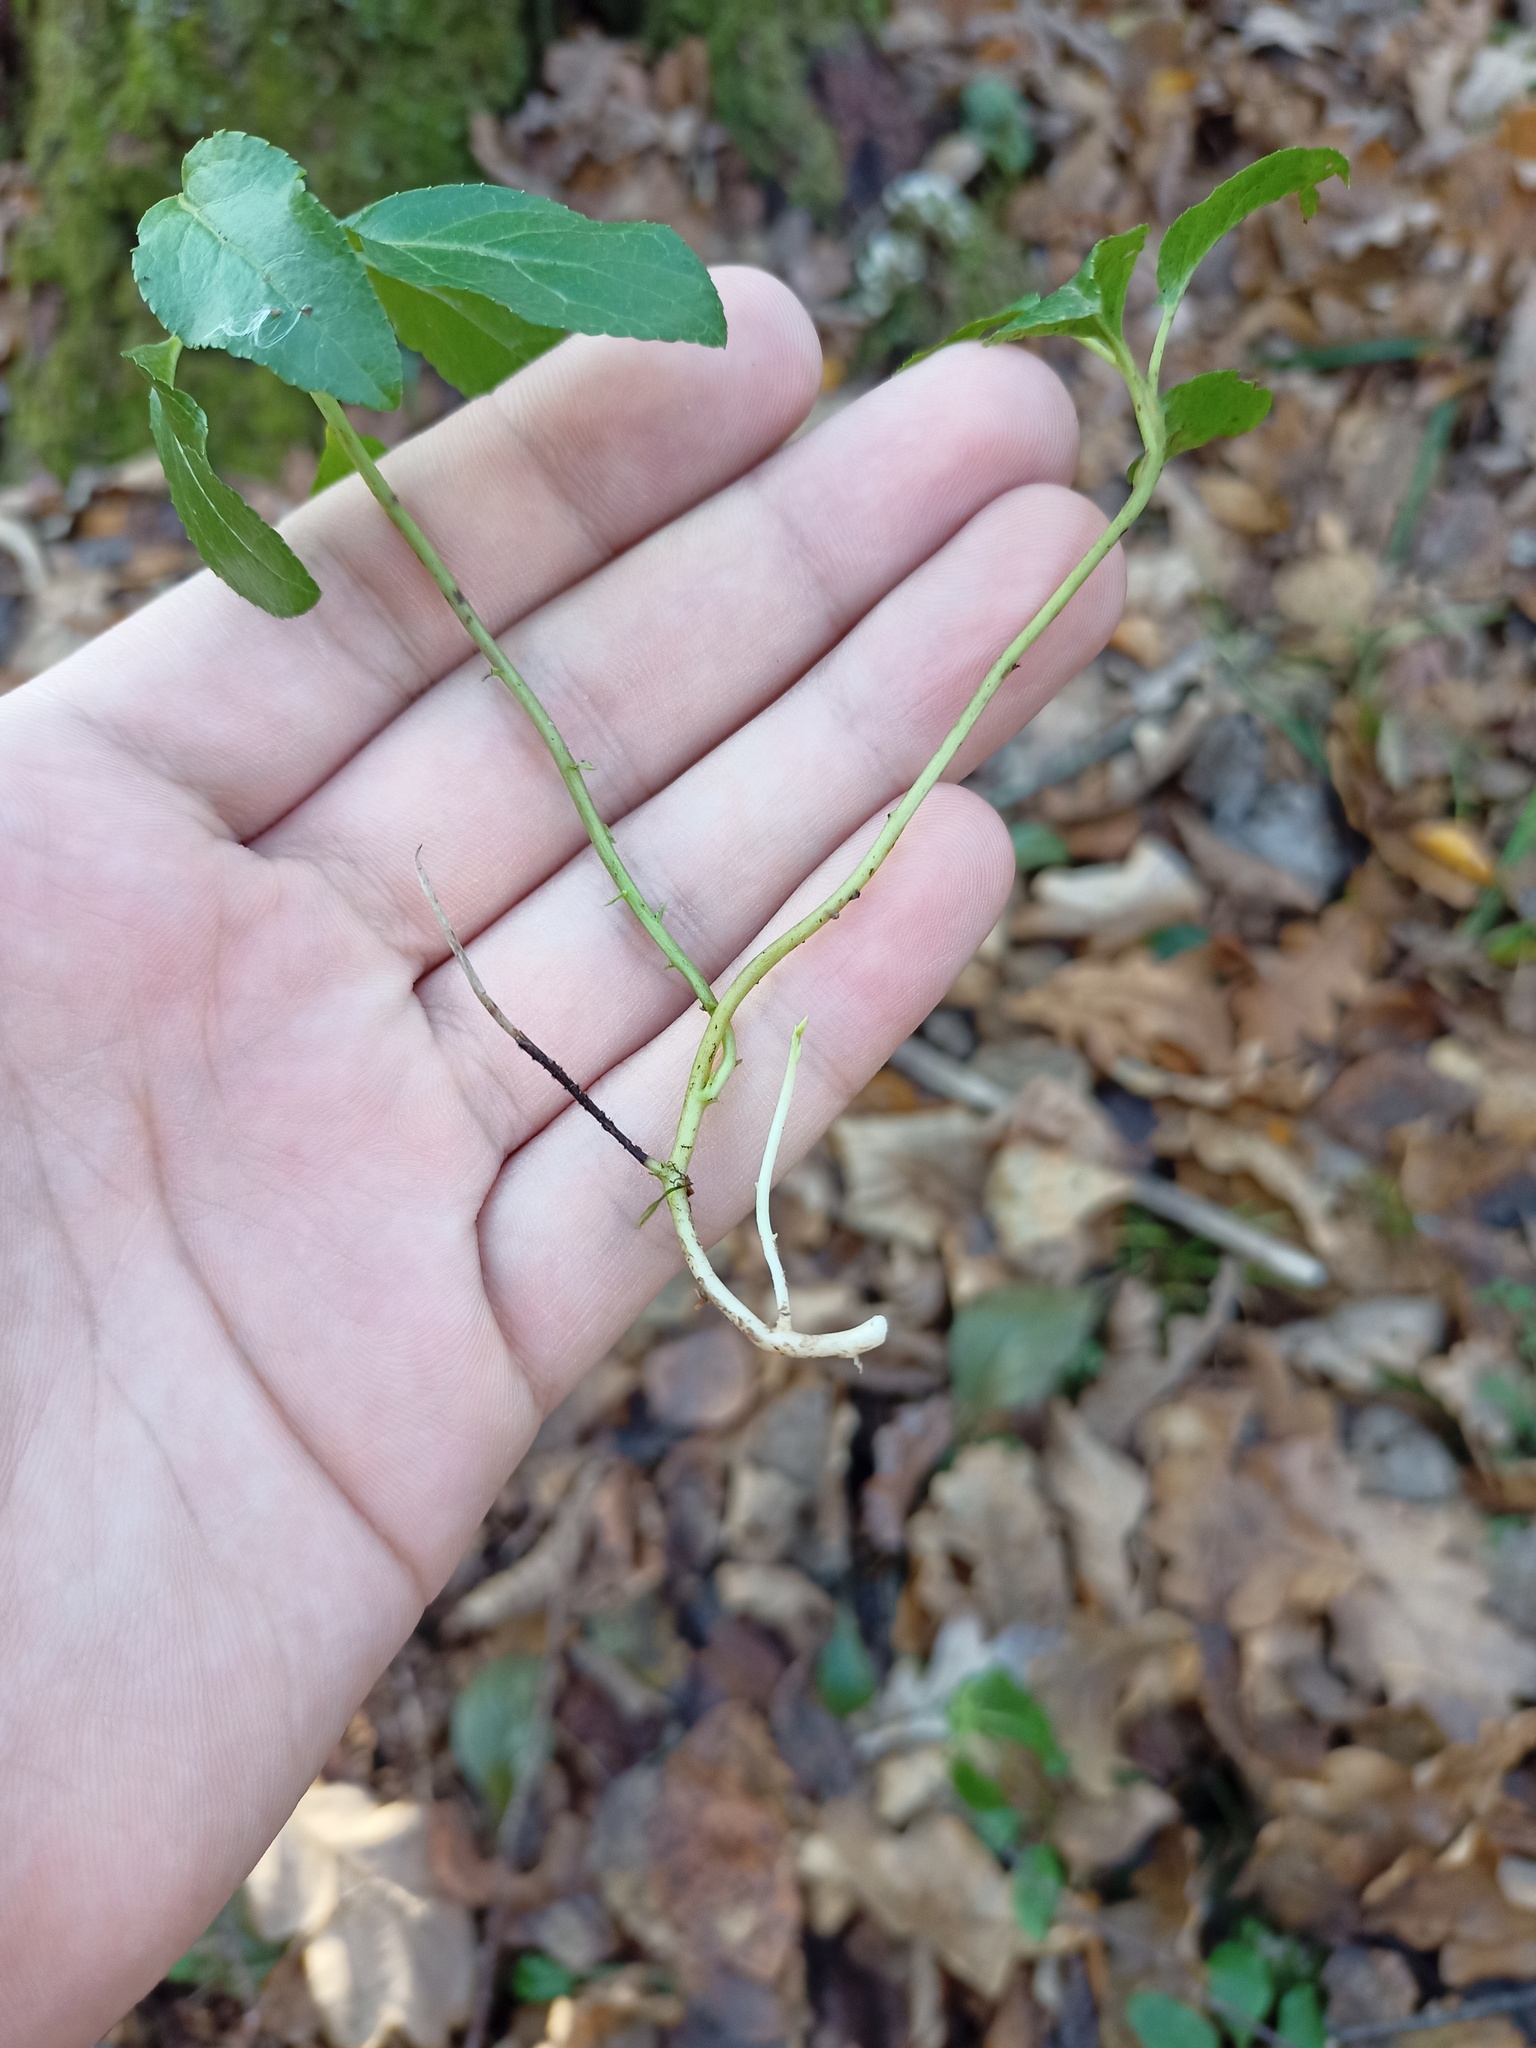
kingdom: Plantae
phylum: Tracheophyta
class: Magnoliopsida
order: Ericales
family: Ericaceae
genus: Orthilia
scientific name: Orthilia secunda
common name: One-sided orthilia
